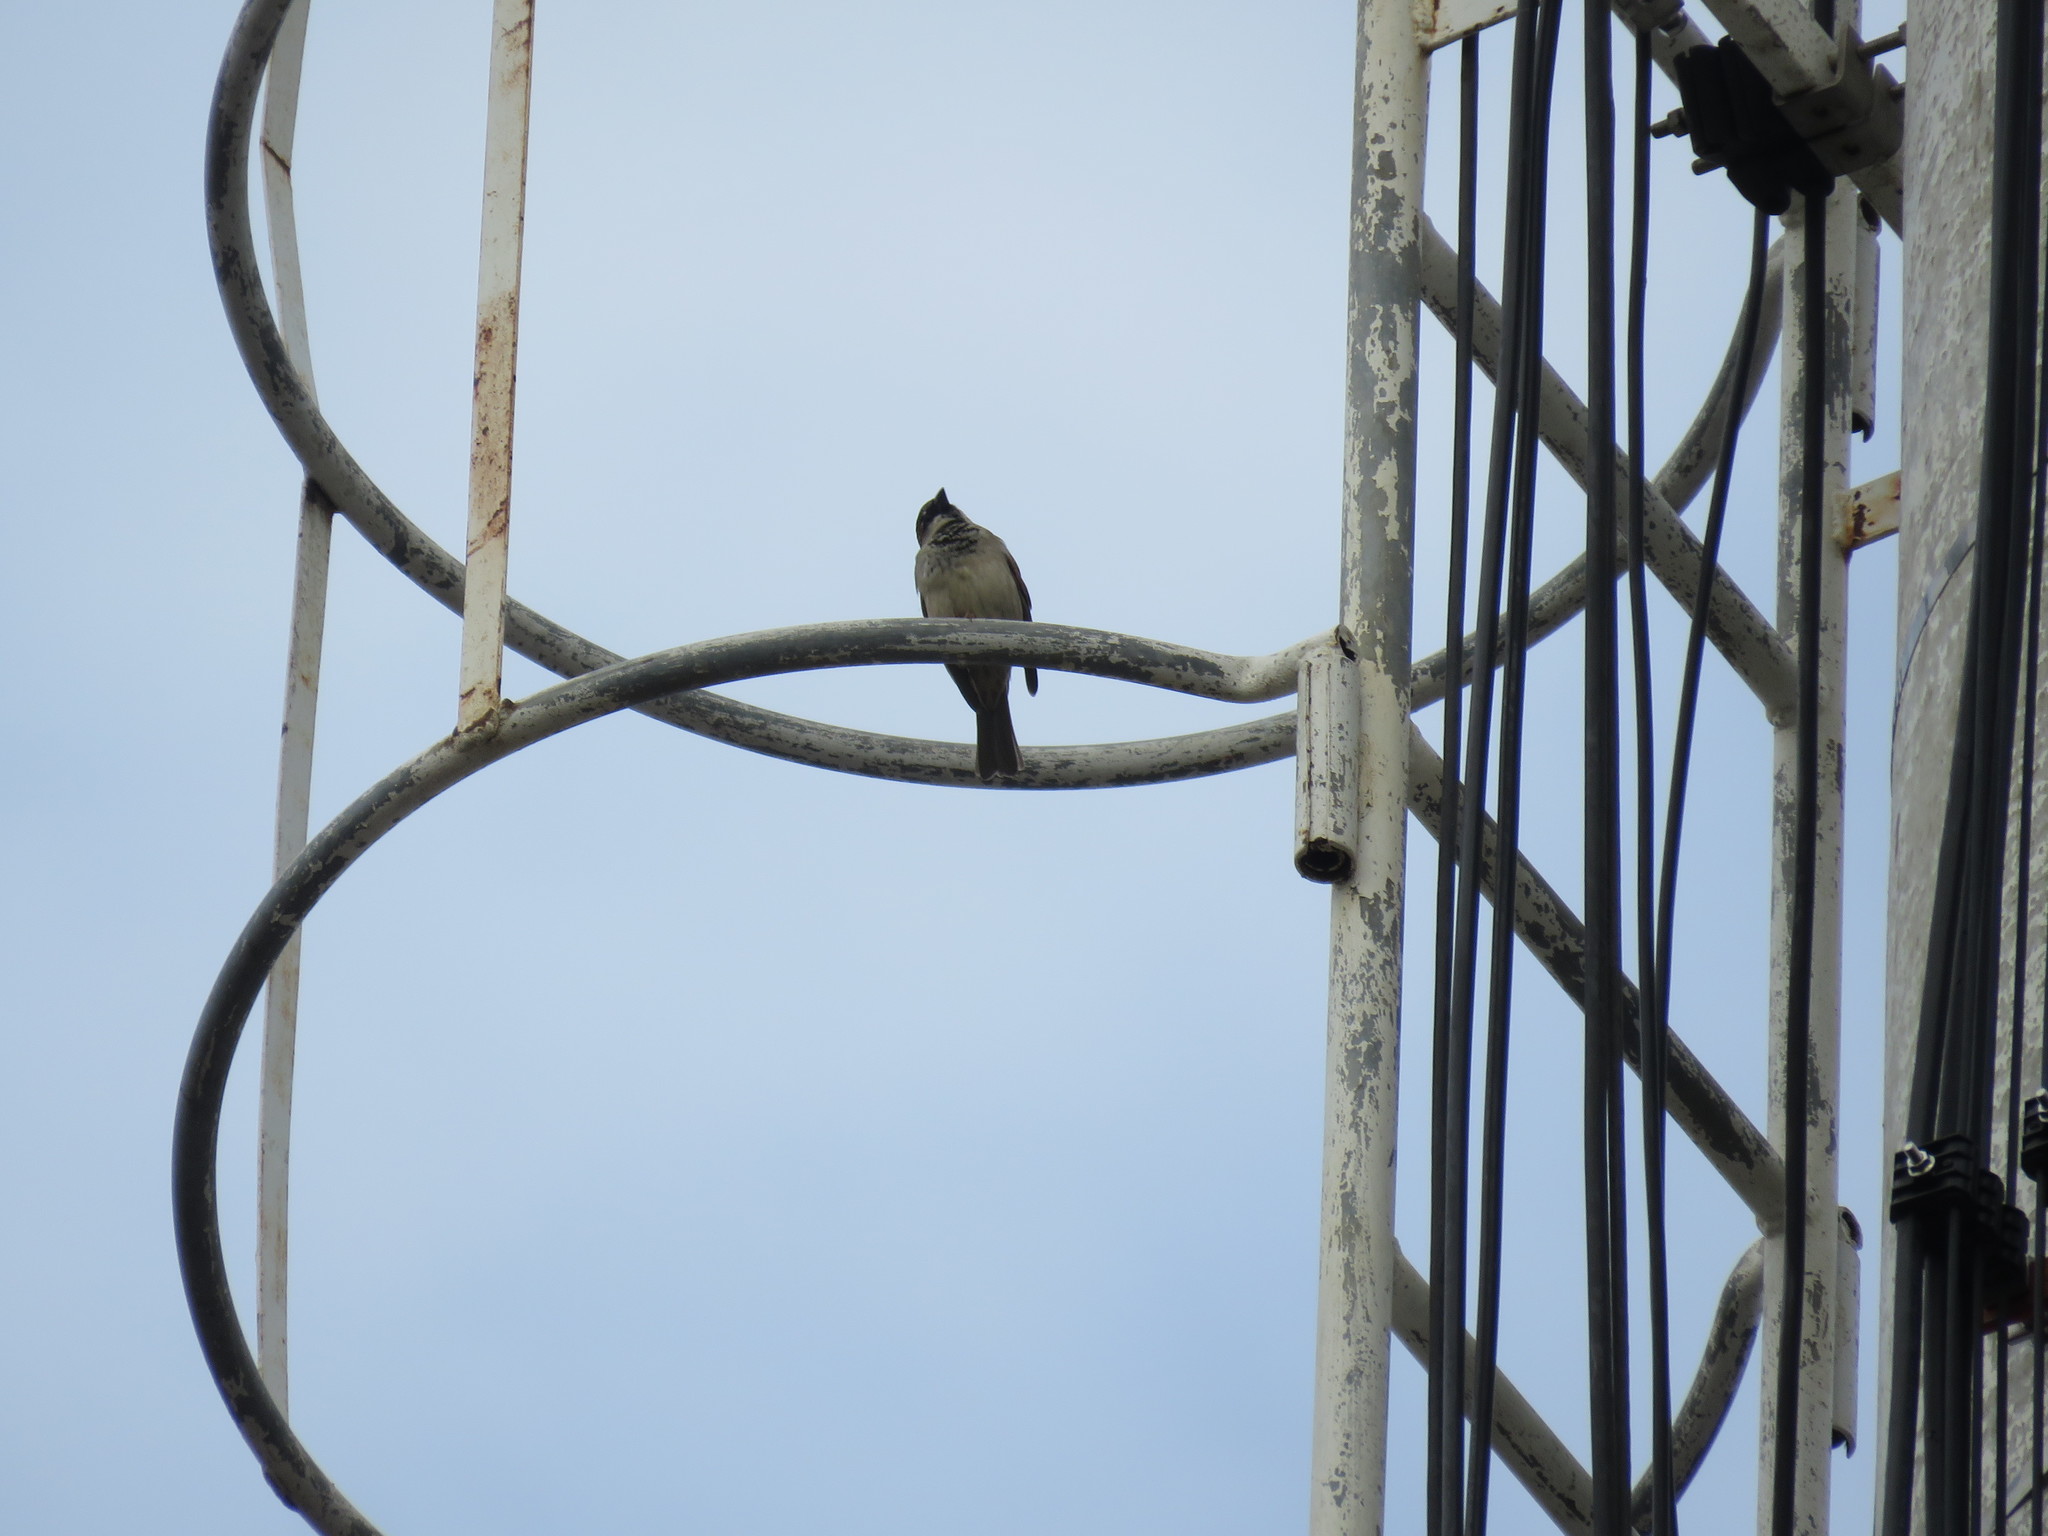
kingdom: Animalia
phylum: Chordata
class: Aves
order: Passeriformes
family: Passeridae
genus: Passer
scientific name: Passer domesticus
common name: House sparrow
